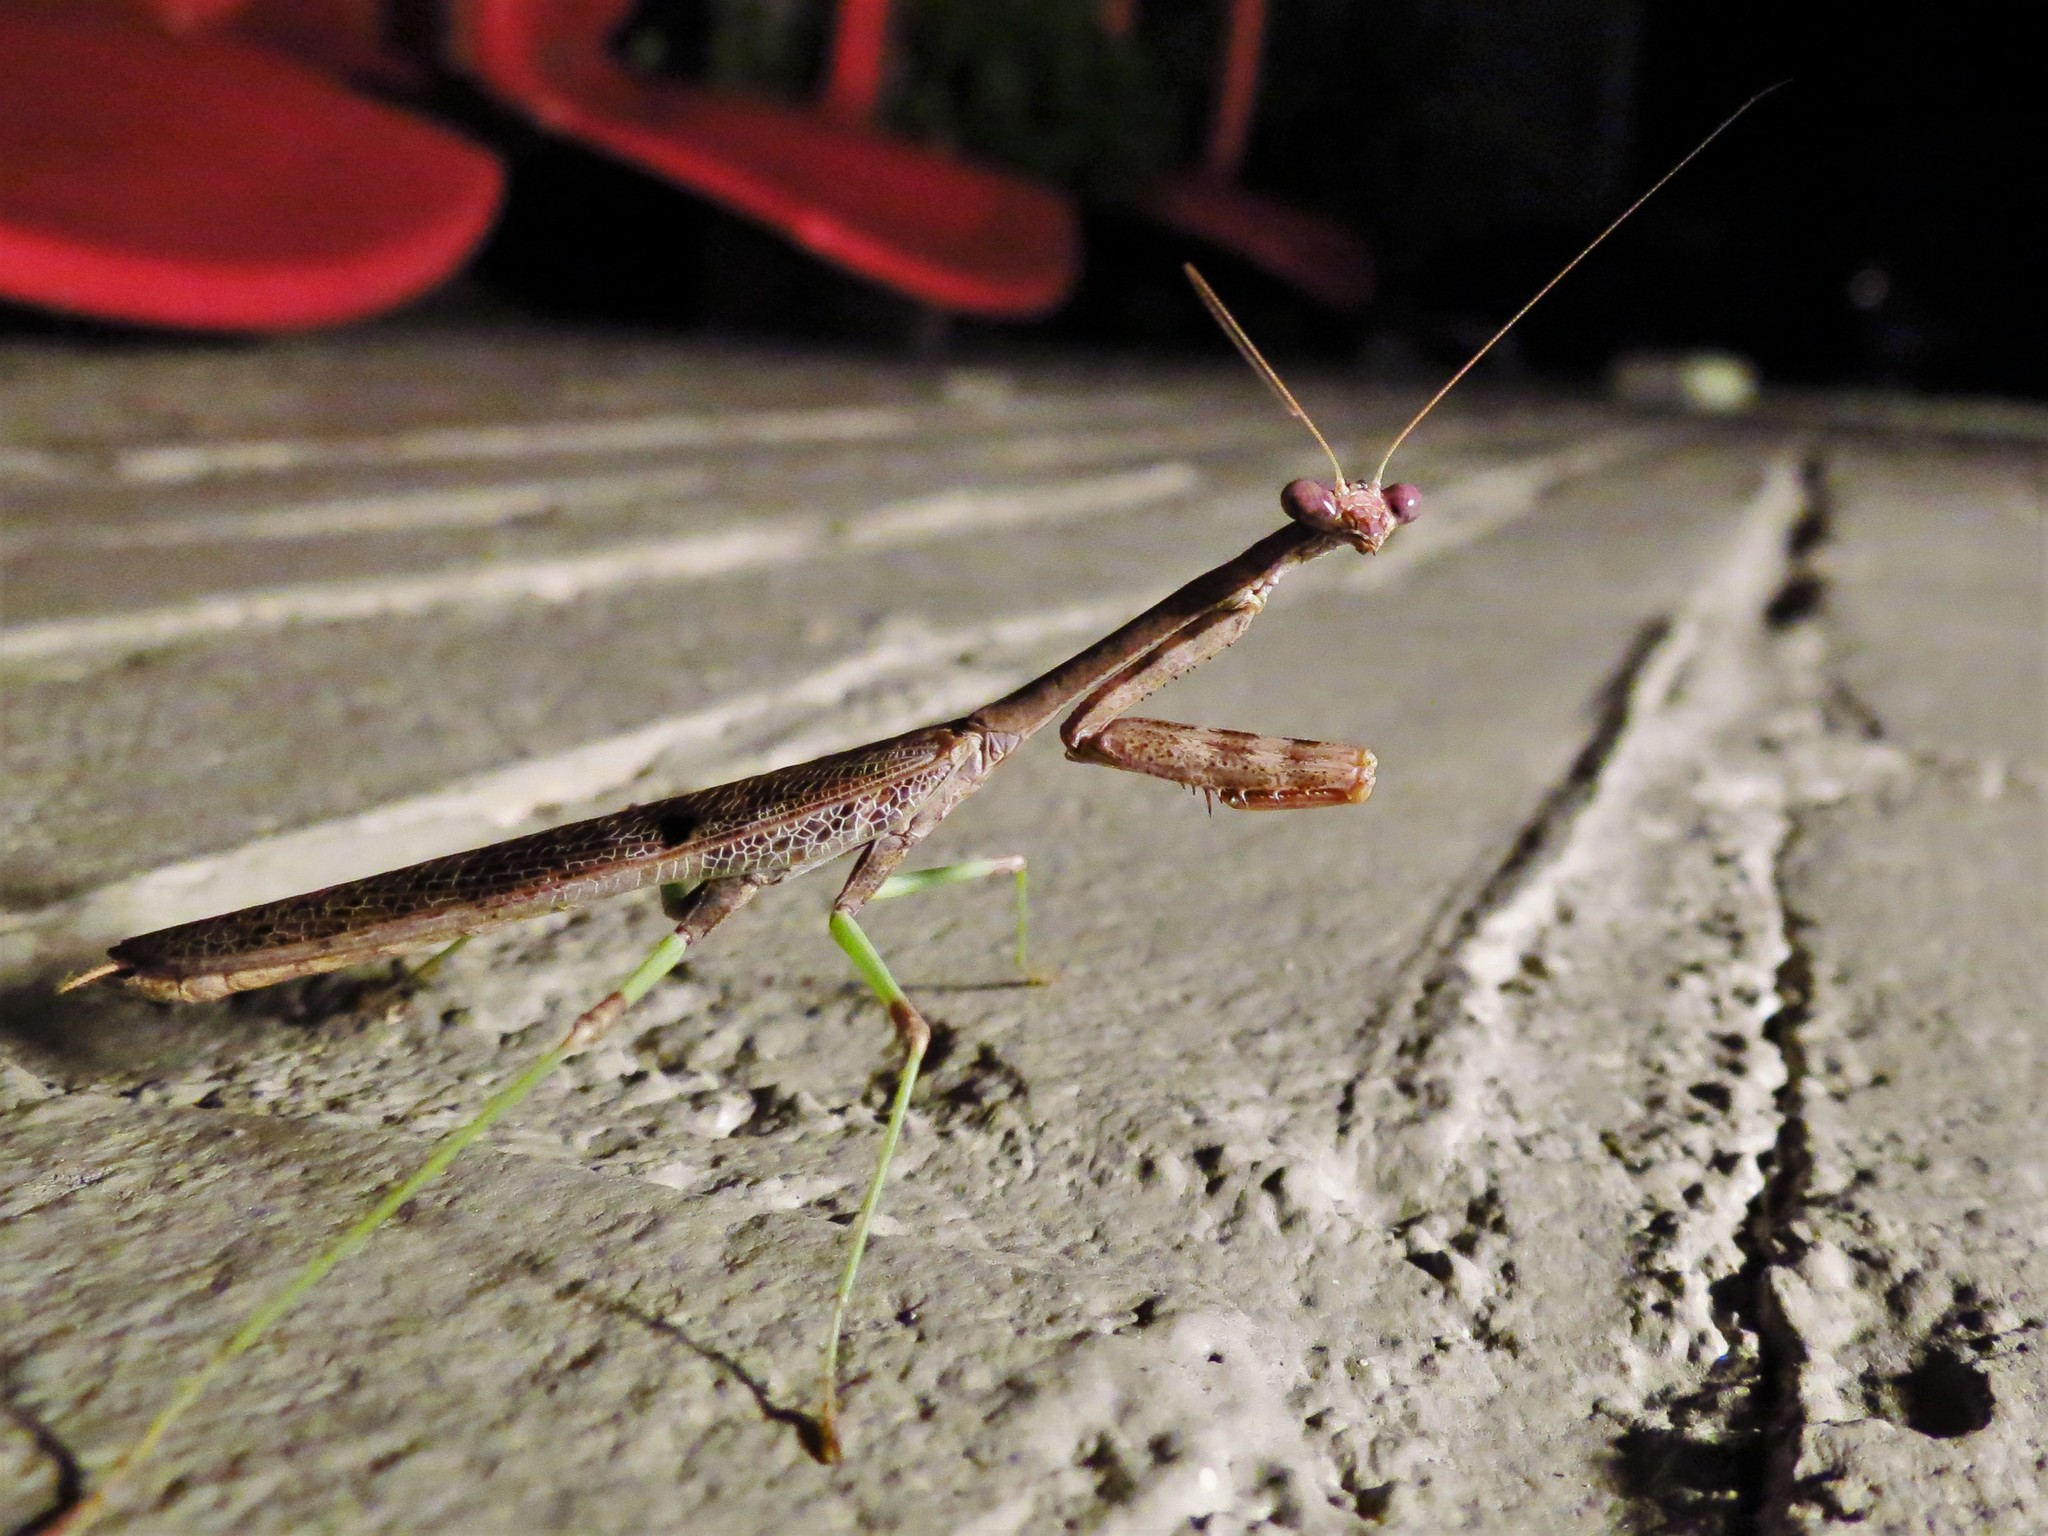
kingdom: Animalia
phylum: Arthropoda
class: Insecta
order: Mantodea
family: Mantidae
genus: Stagmomantis
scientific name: Stagmomantis carolina
